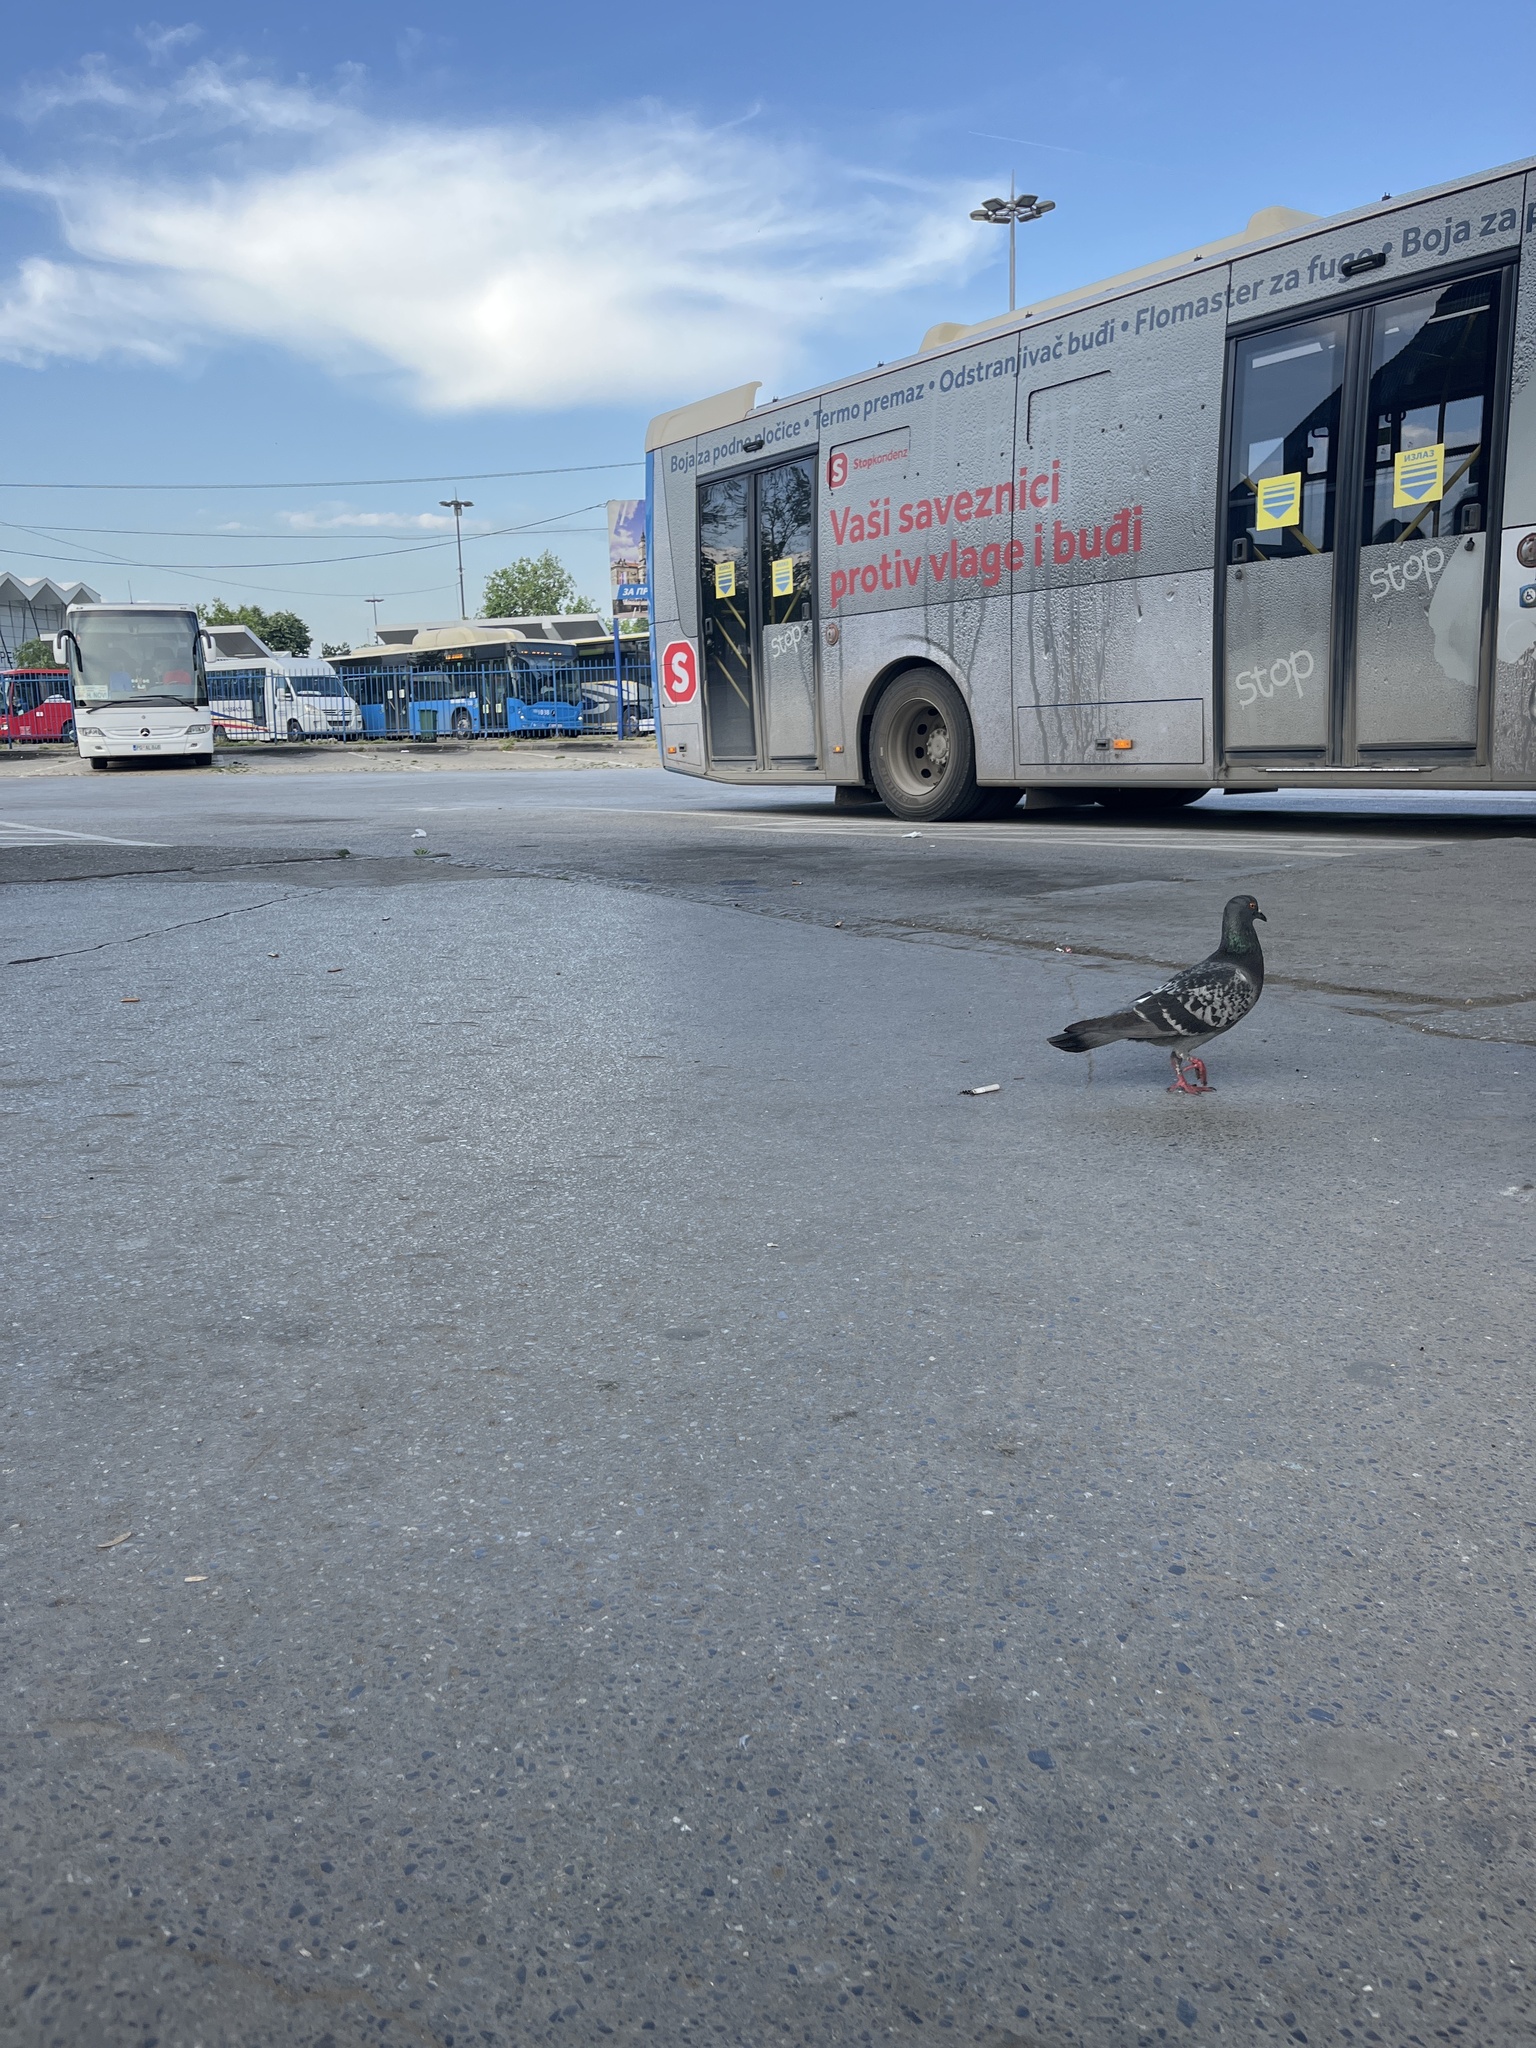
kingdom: Animalia
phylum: Chordata
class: Aves
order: Columbiformes
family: Columbidae
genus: Columba
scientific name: Columba livia
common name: Rock pigeon
